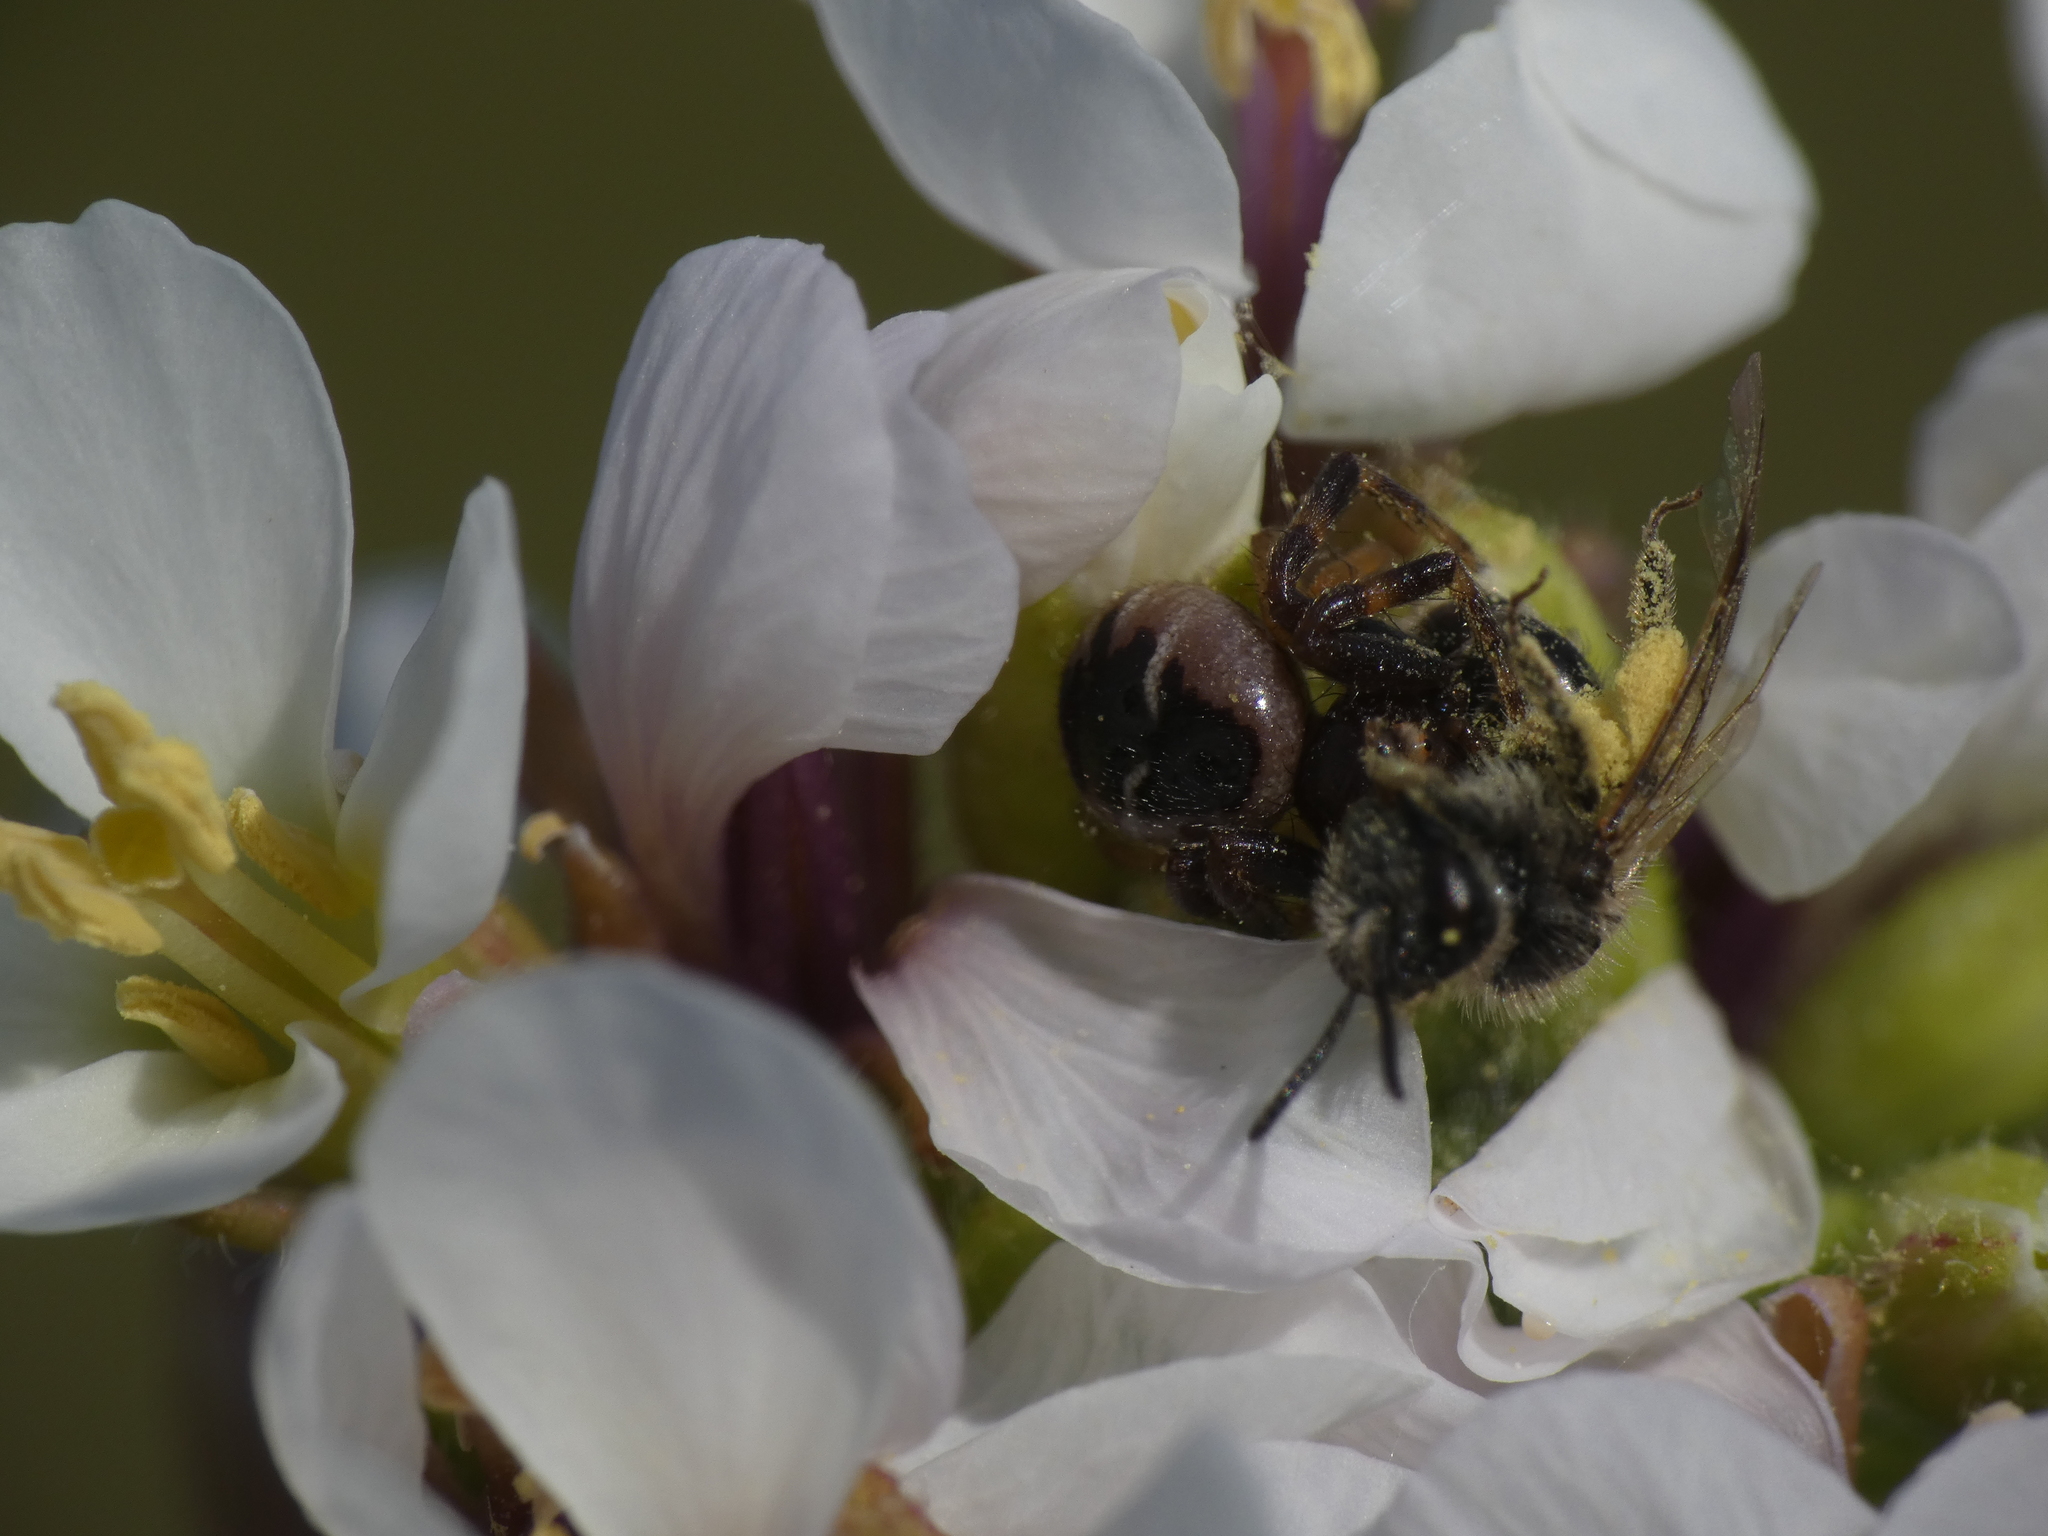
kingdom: Animalia
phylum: Arthropoda
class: Arachnida
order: Araneae
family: Thomisidae
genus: Synema
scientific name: Synema globosum
